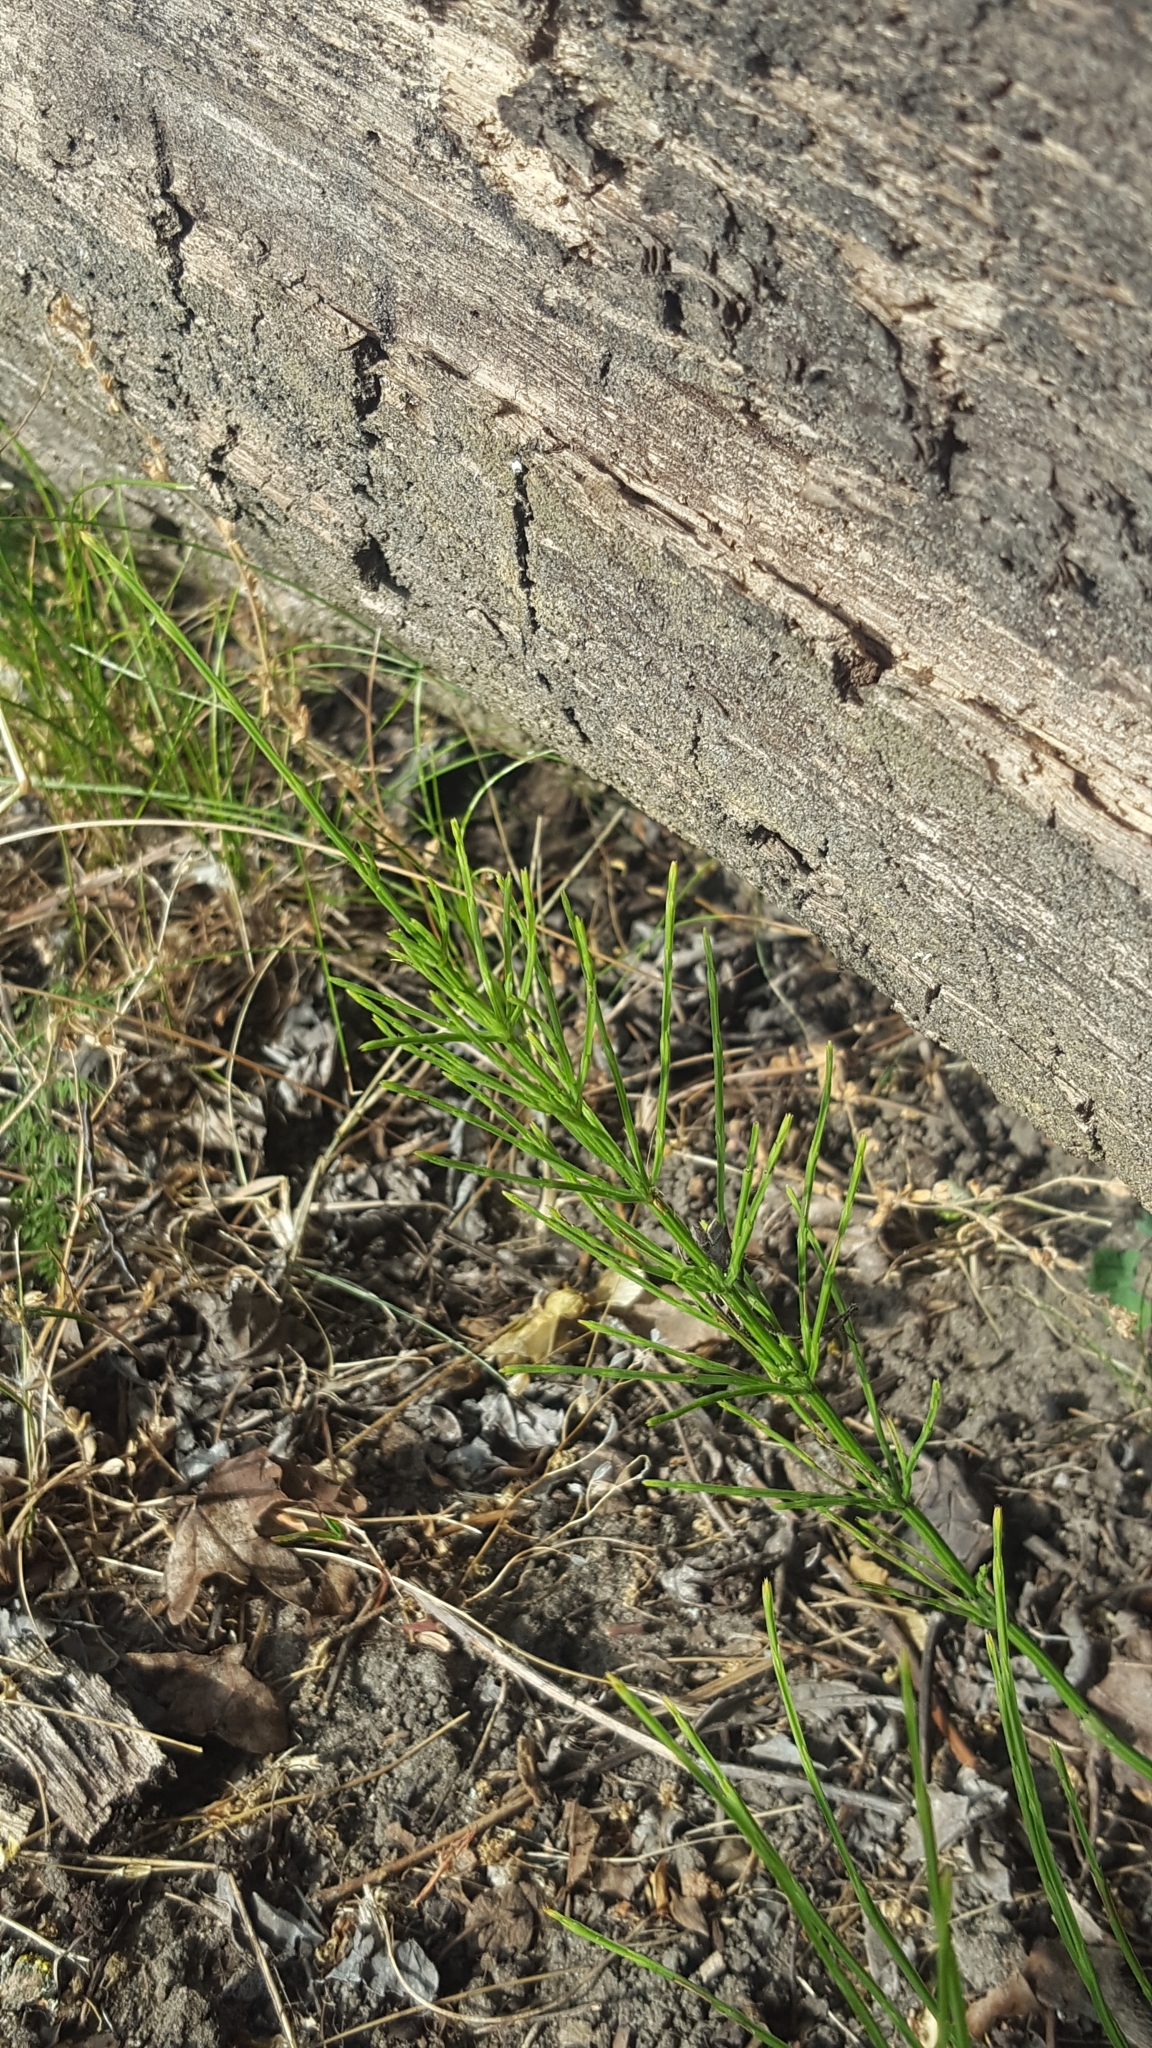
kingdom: Plantae
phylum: Tracheophyta
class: Polypodiopsida
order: Equisetales
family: Equisetaceae
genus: Equisetum
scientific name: Equisetum arvense
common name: Field horsetail
